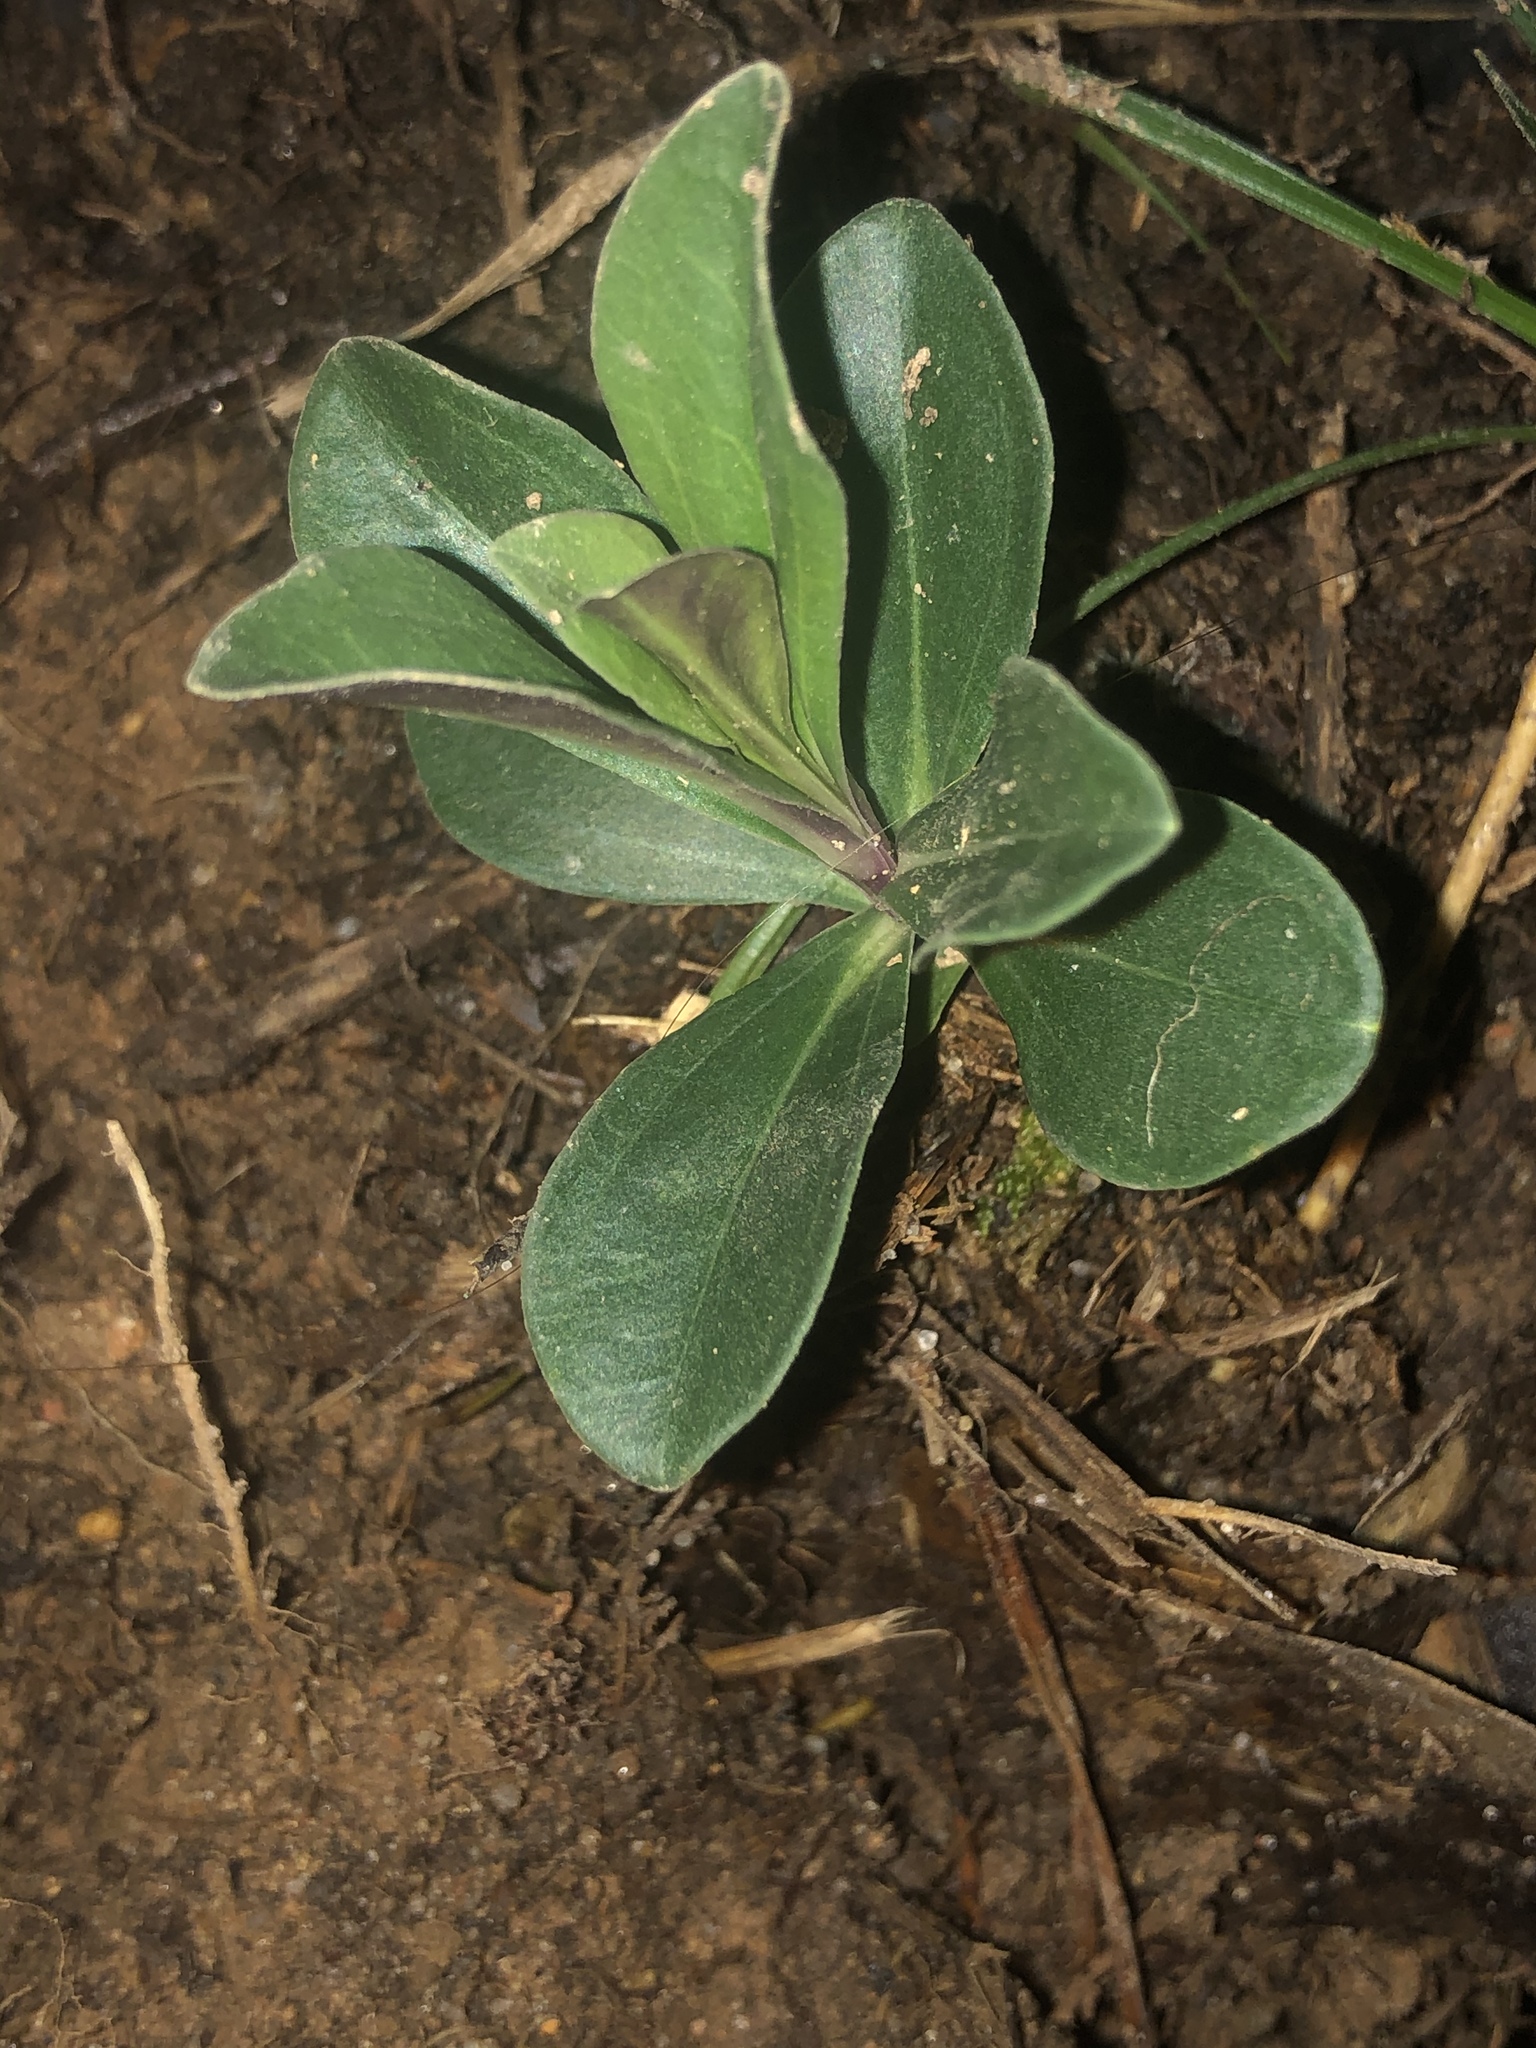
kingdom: Plantae
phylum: Tracheophyta
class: Magnoliopsida
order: Gentianales
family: Gentianaceae
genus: Gentiana
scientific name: Gentiana villosa
